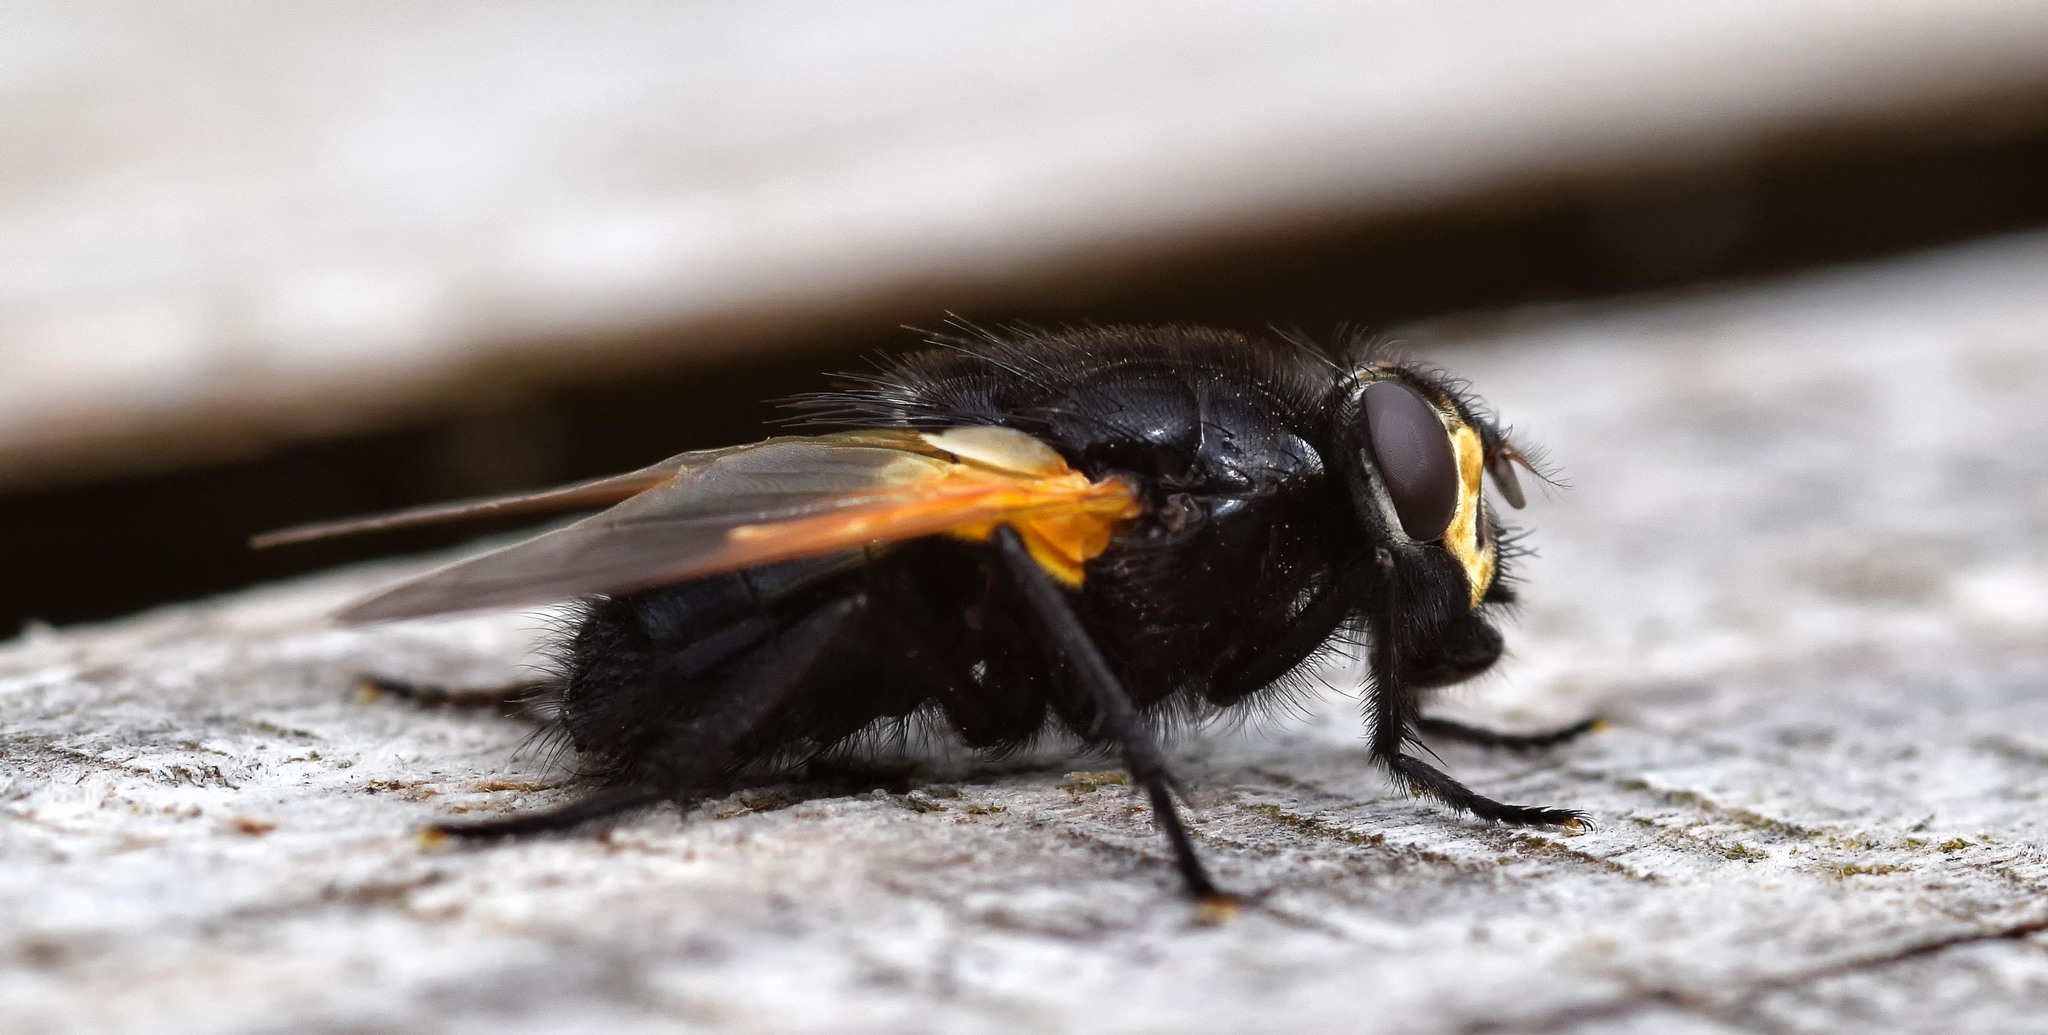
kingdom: Animalia
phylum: Arthropoda
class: Insecta
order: Diptera
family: Muscidae
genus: Mesembrina
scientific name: Mesembrina meridiana
